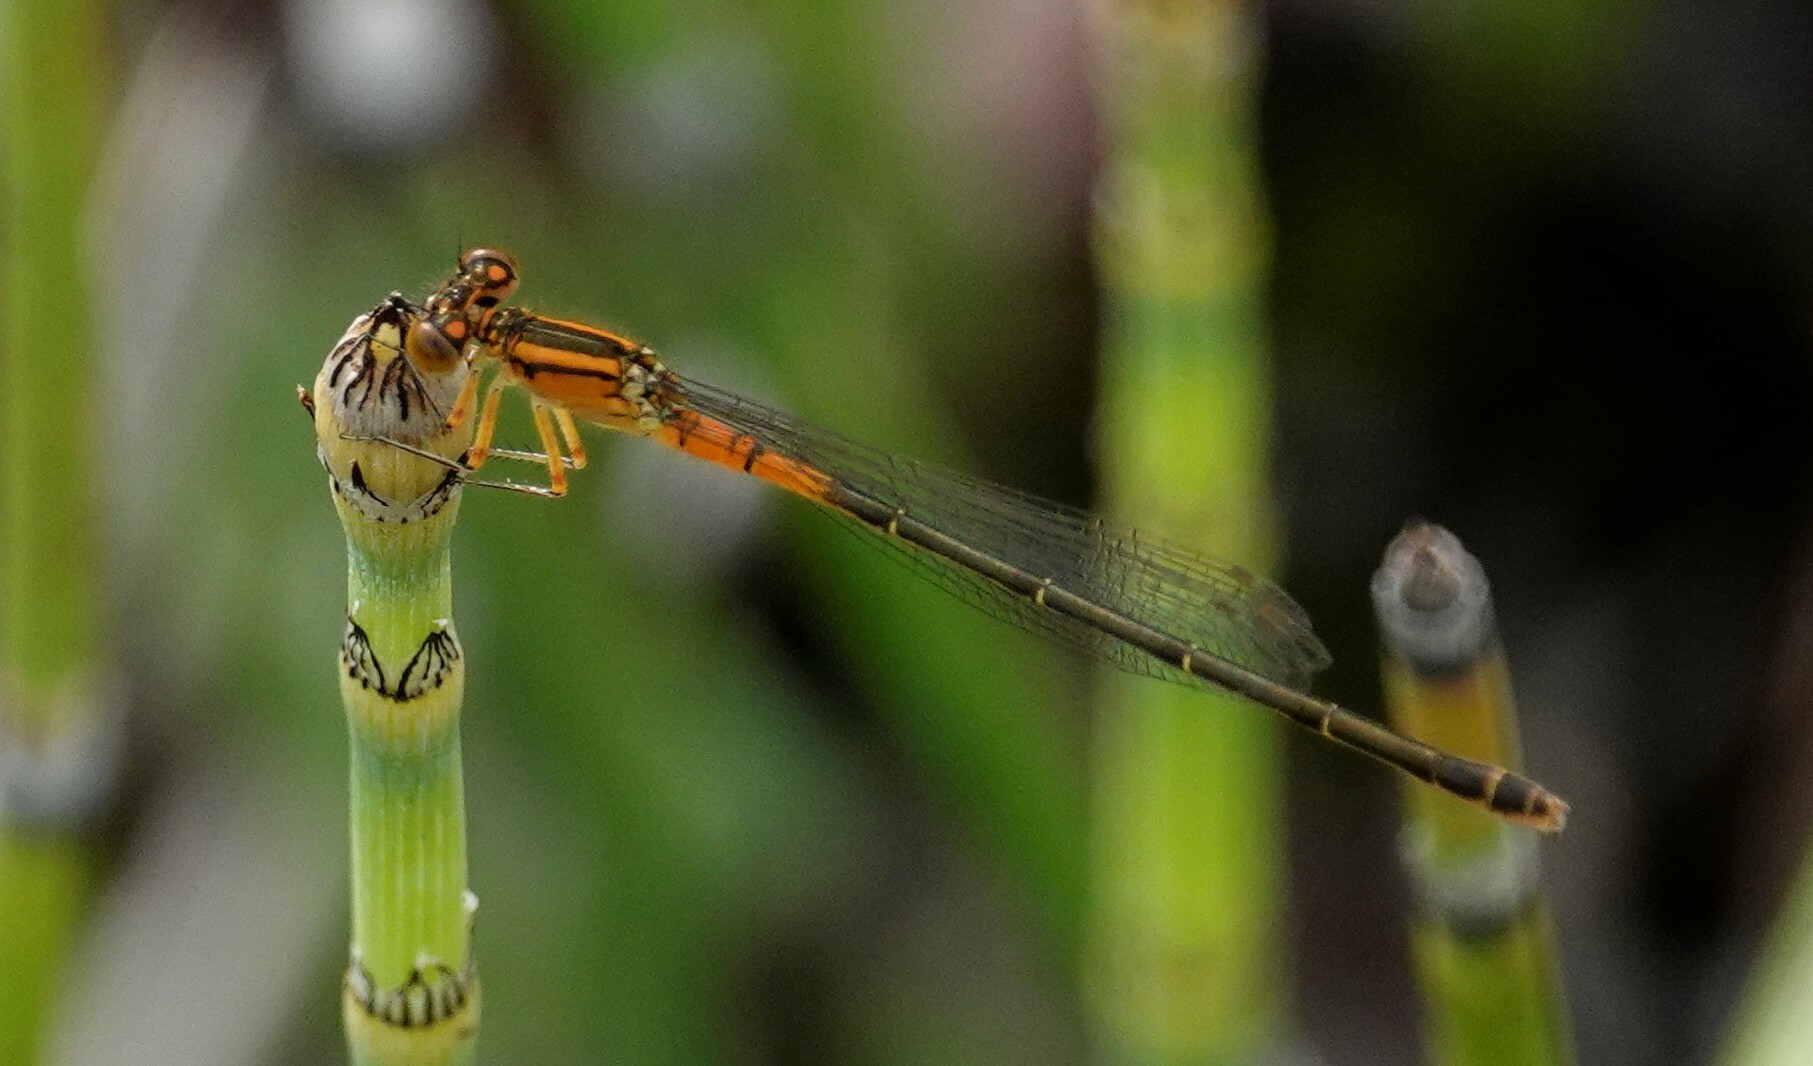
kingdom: Animalia
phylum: Arthropoda
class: Insecta
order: Odonata
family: Coenagrionidae
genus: Ischnura
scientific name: Ischnura verticalis
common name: Eastern forktail
